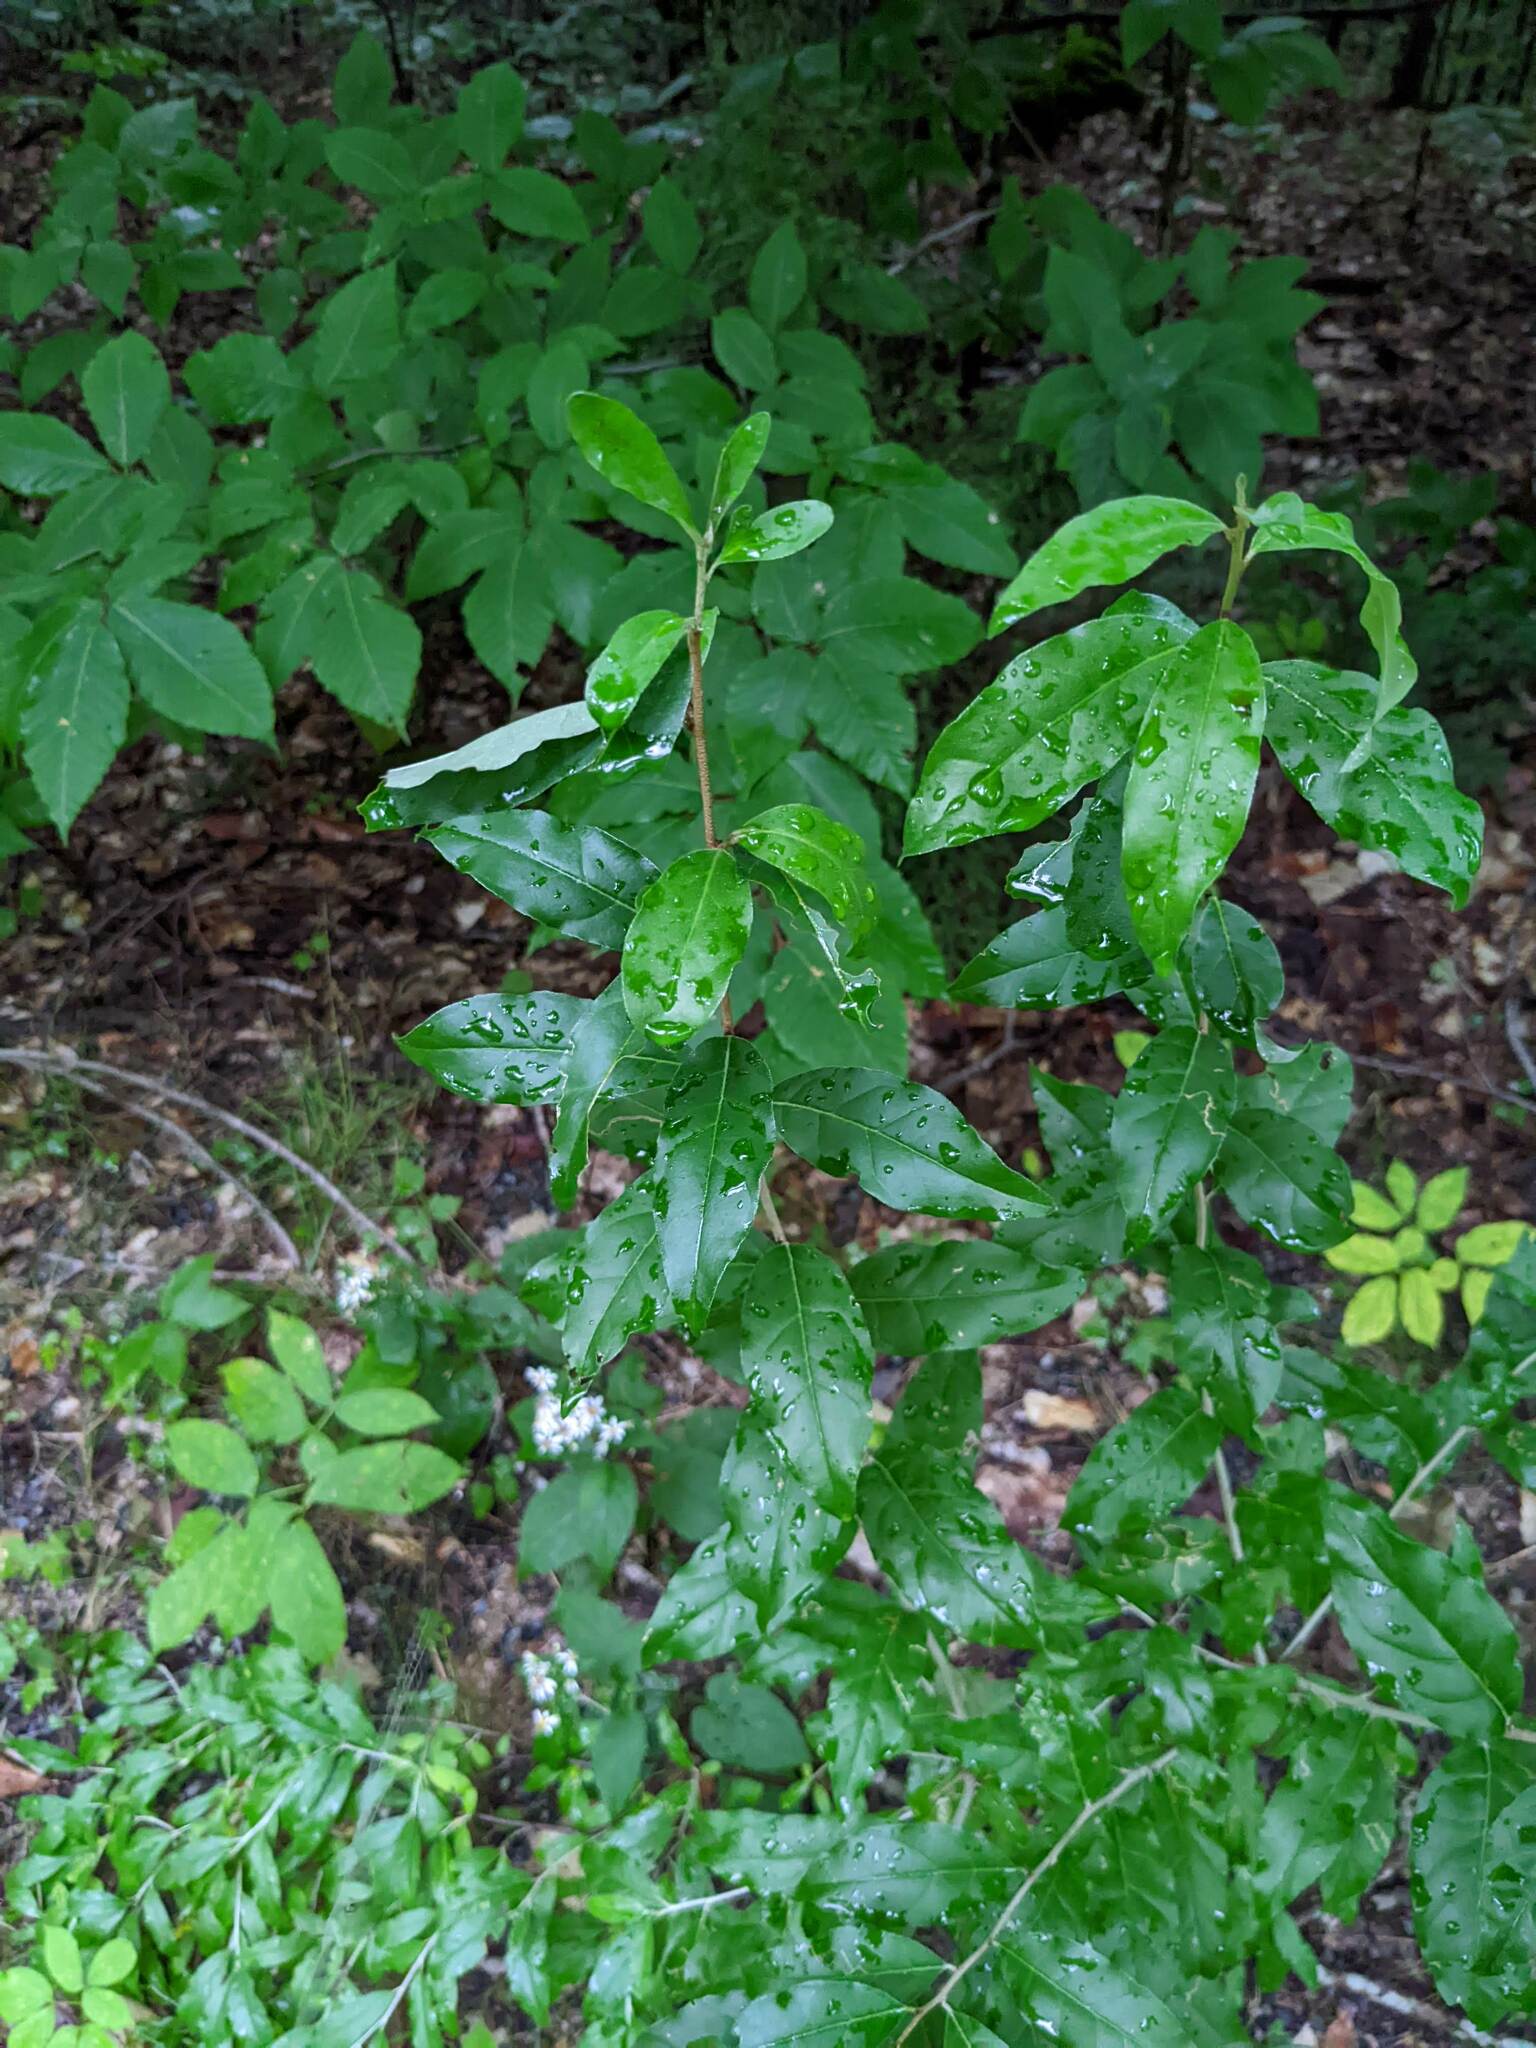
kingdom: Plantae
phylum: Tracheophyta
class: Magnoliopsida
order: Rosales
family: Elaeagnaceae
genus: Elaeagnus
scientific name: Elaeagnus umbellata
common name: Autumn olive
